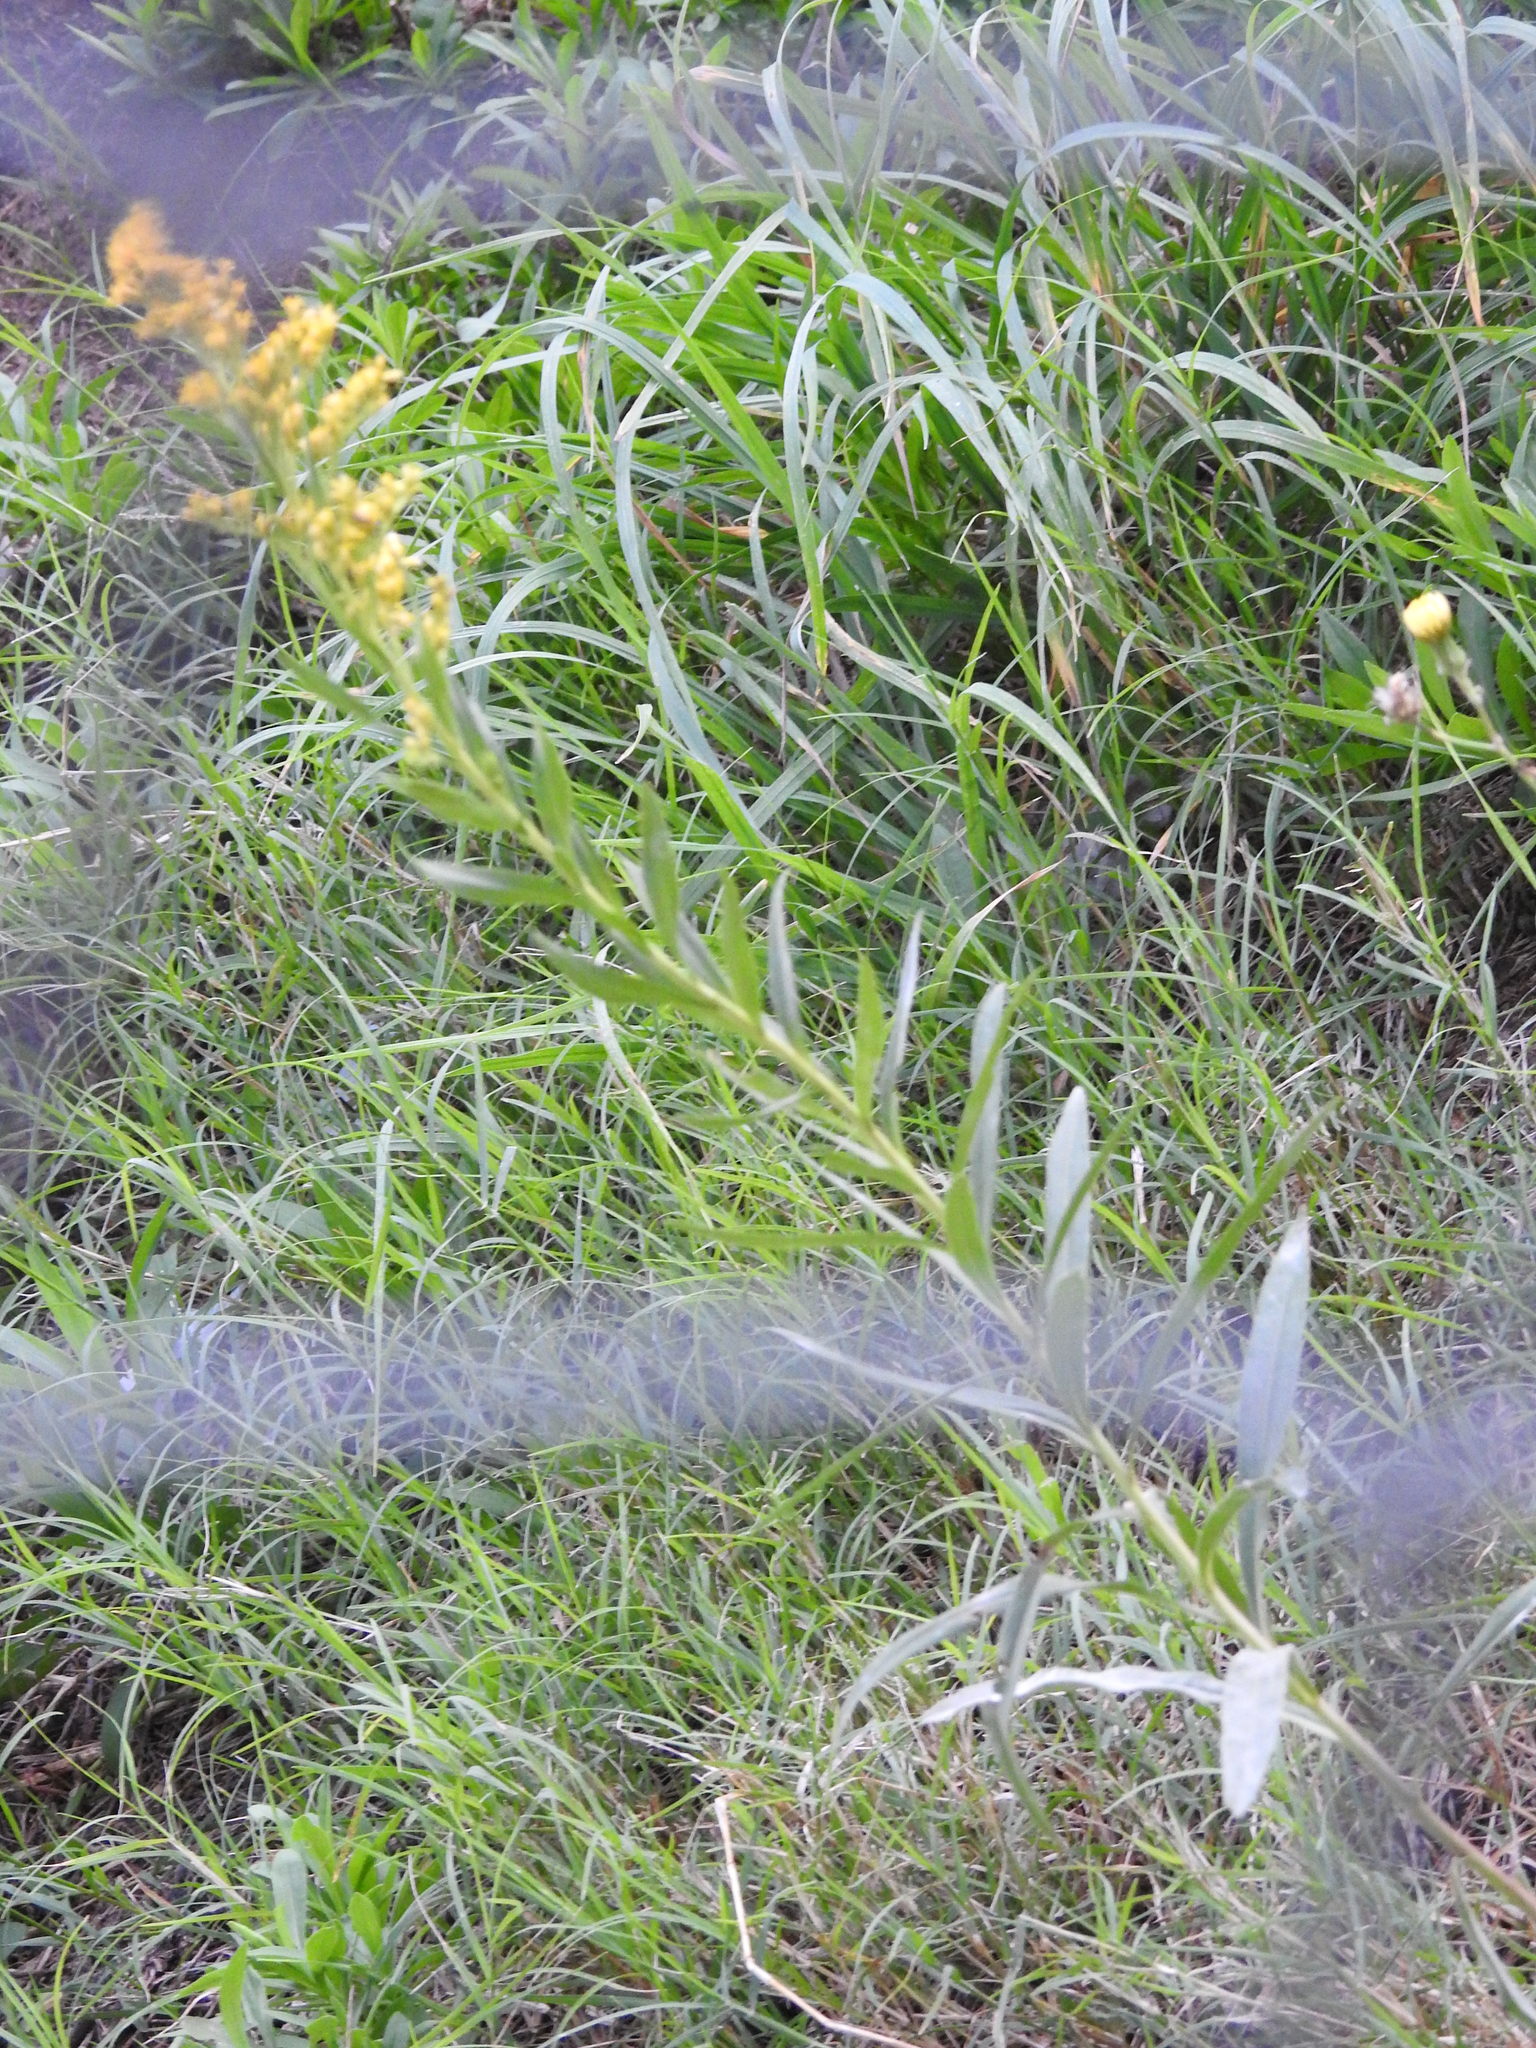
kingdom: Plantae
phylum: Tracheophyta
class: Magnoliopsida
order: Asterales
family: Asteraceae
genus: Solidago
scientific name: Solidago chilensis
